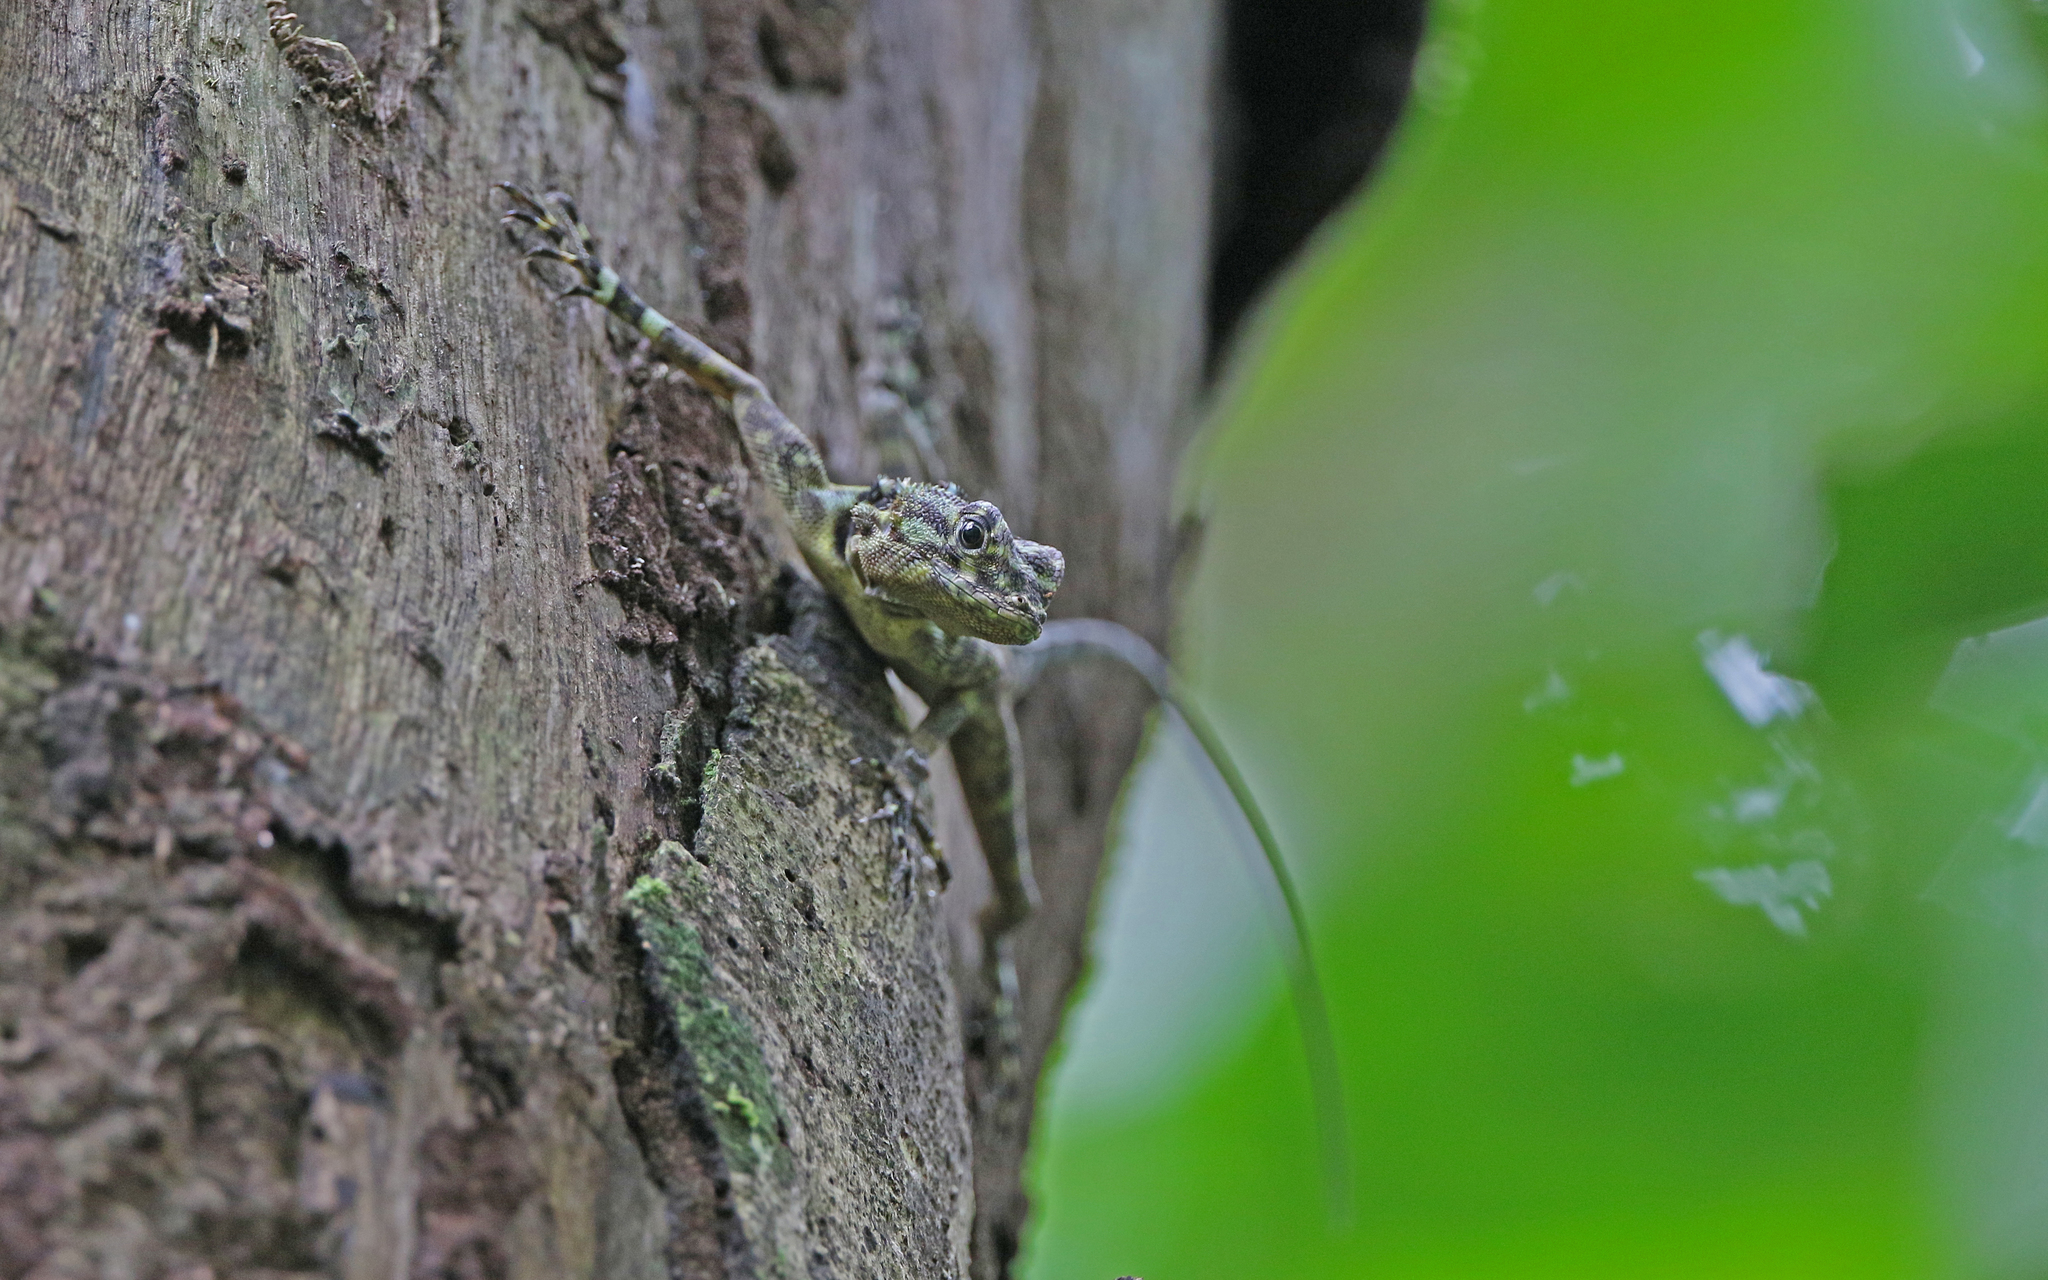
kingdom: Animalia
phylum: Chordata
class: Squamata
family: Tropiduridae
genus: Plica
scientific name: Plica plica
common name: Tree runner
